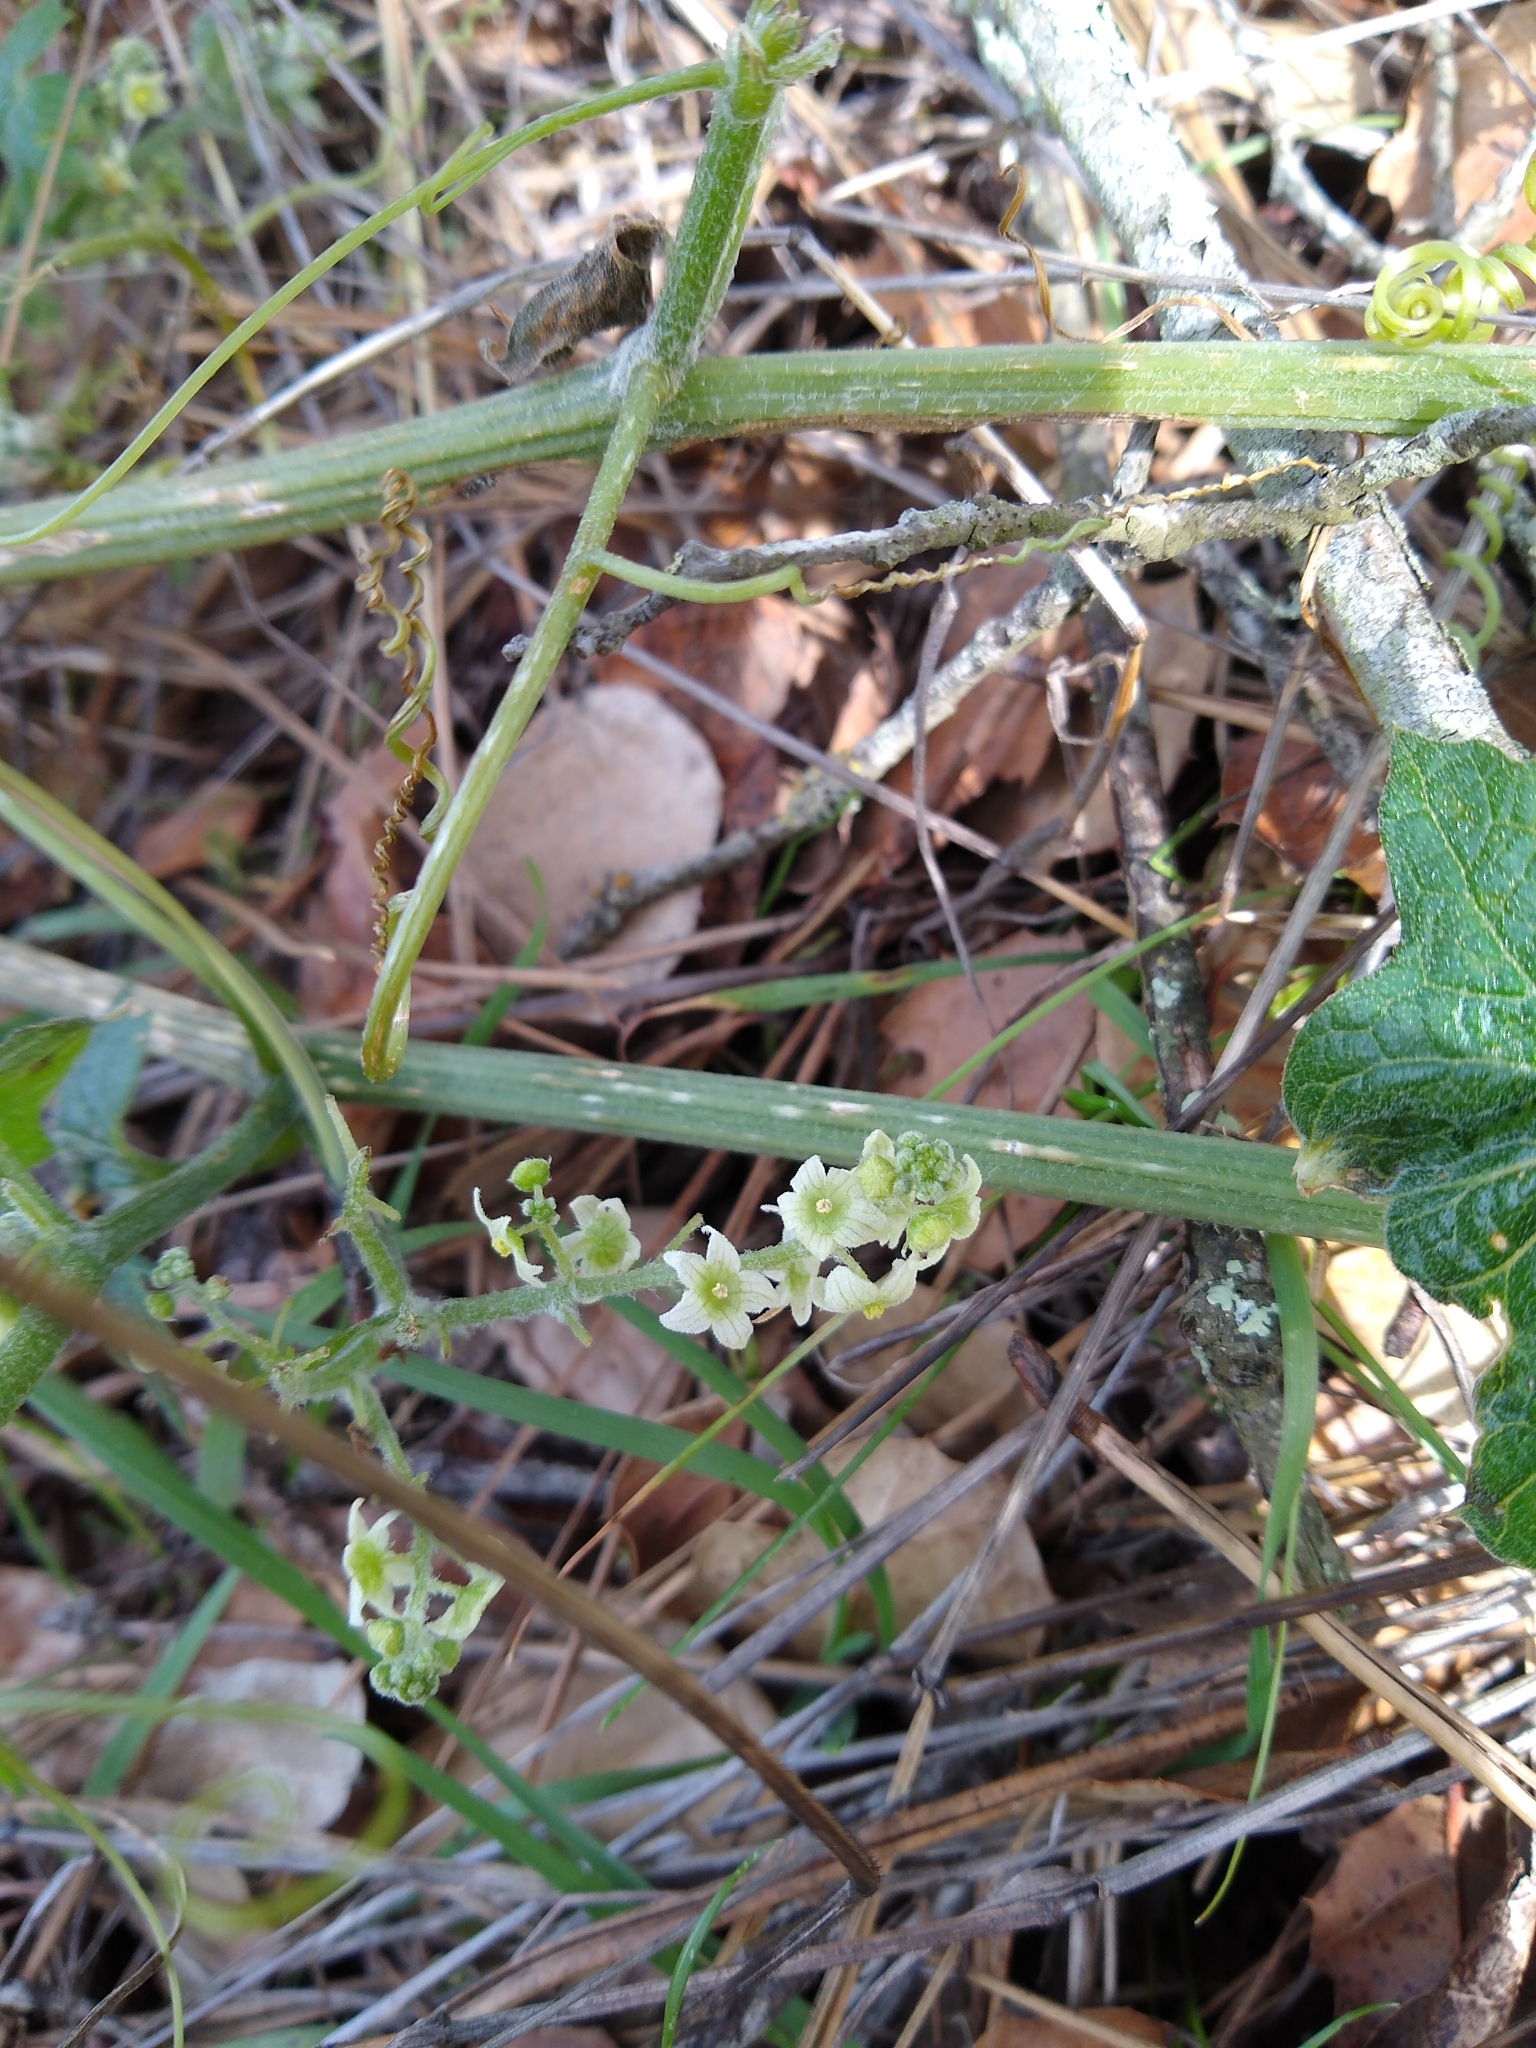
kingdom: Plantae
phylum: Tracheophyta
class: Magnoliopsida
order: Cucurbitales
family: Cucurbitaceae
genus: Marah
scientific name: Marah fabacea
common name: California manroot
